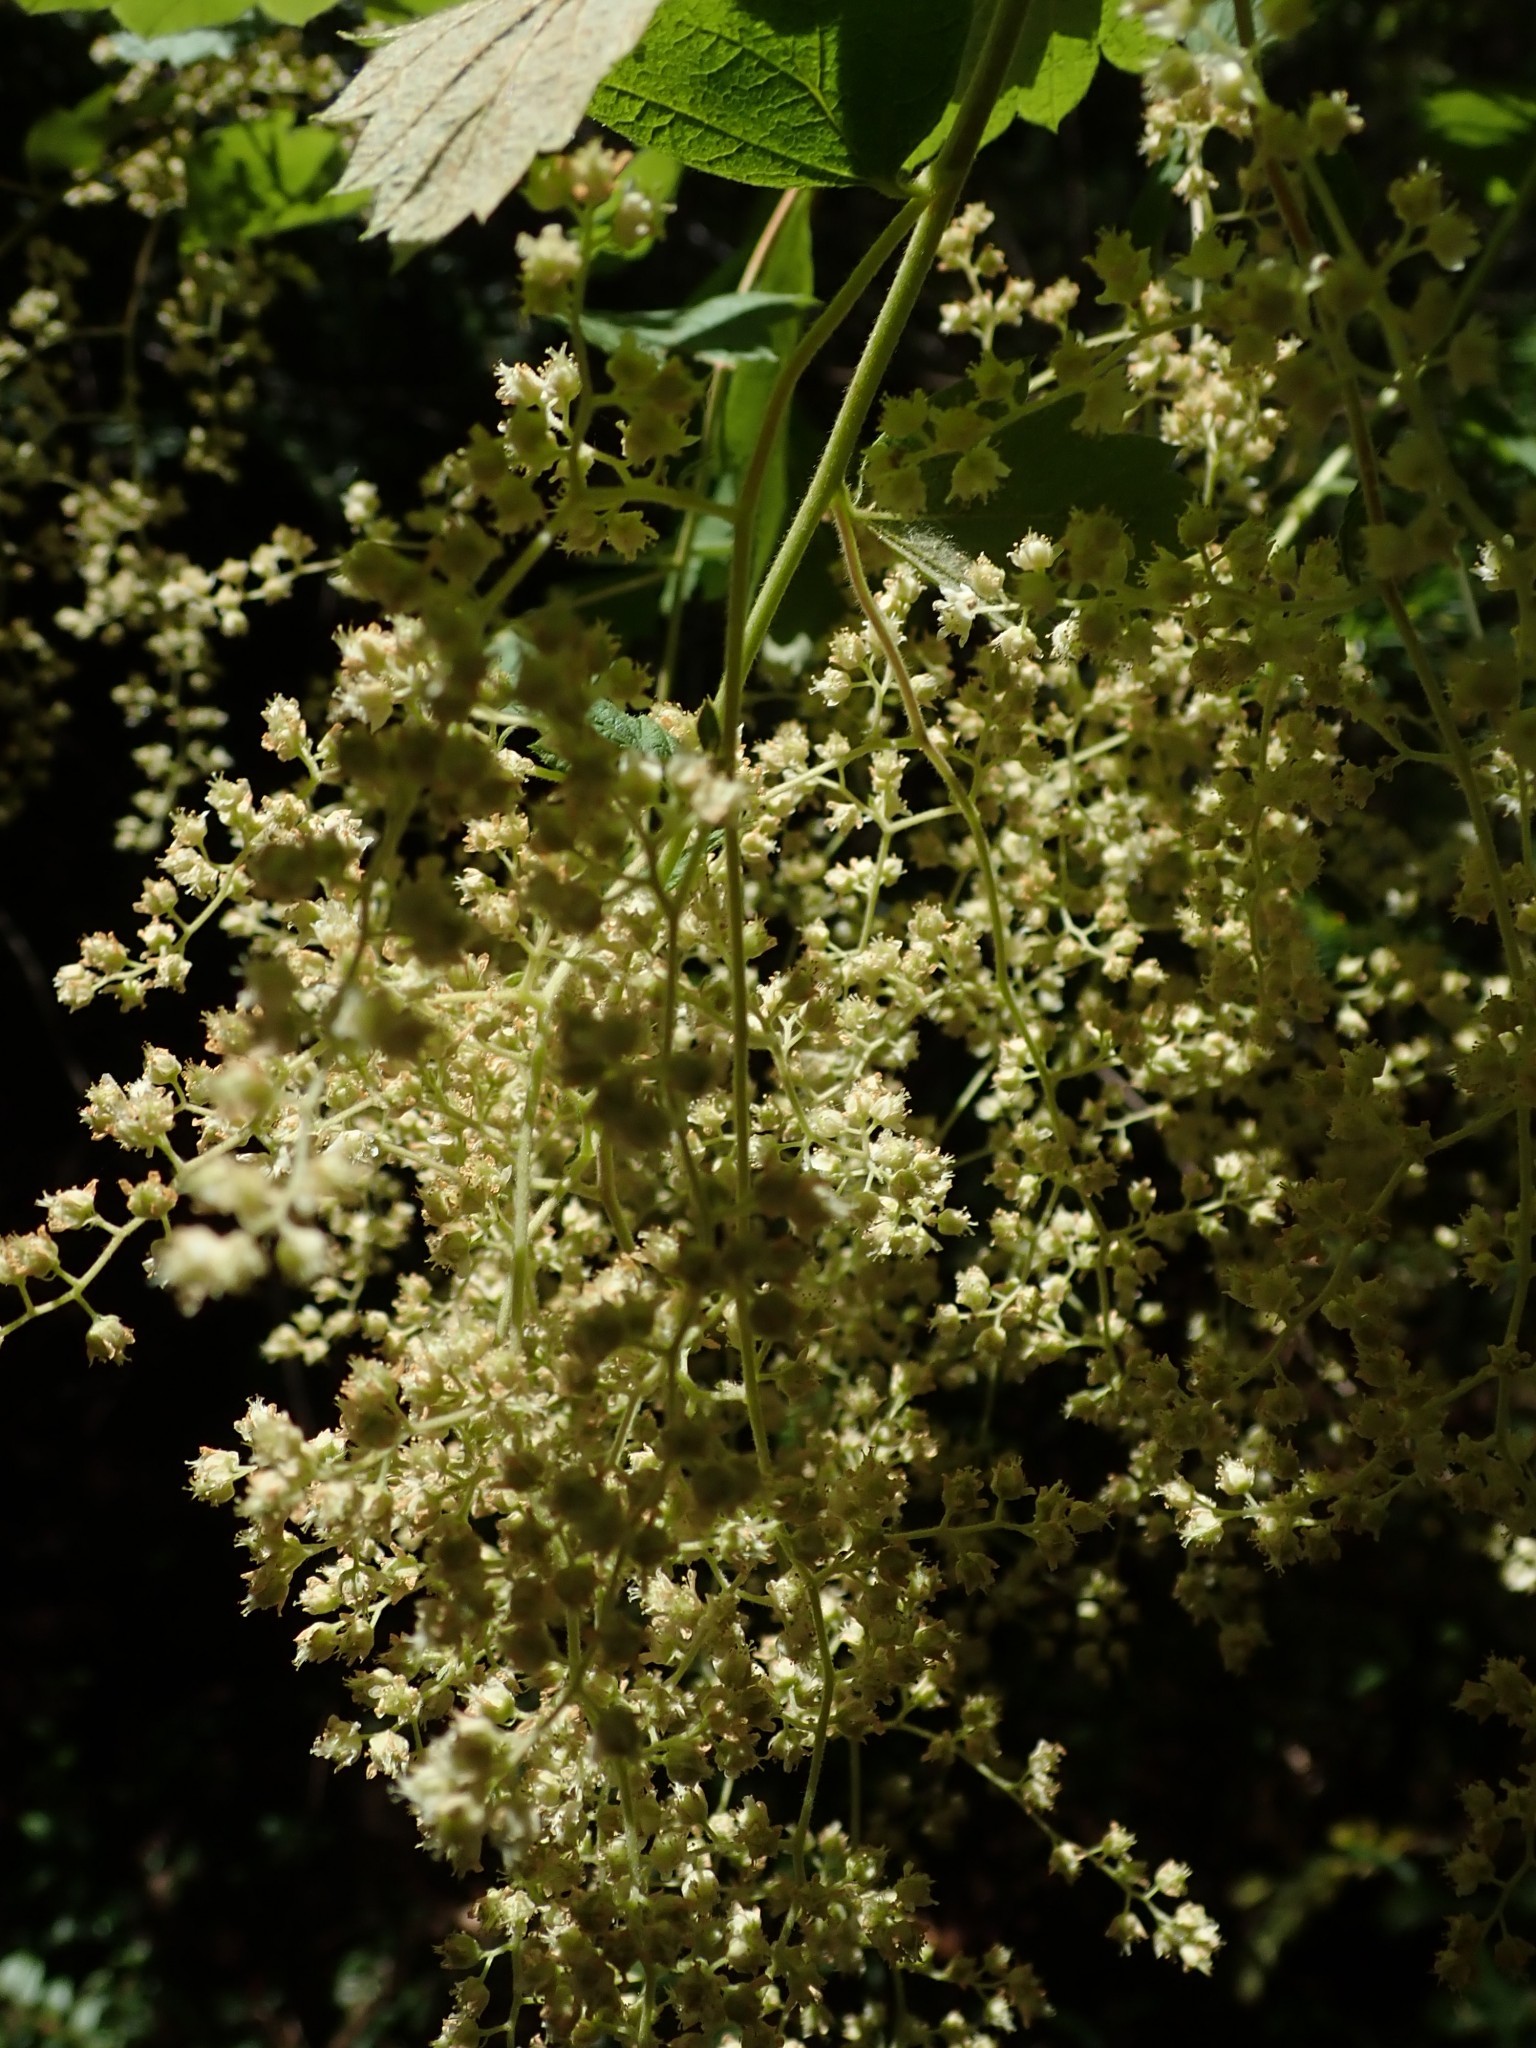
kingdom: Plantae
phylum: Tracheophyta
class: Magnoliopsida
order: Rosales
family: Rosaceae
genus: Holodiscus
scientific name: Holodiscus discolor
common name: Oceanspray
